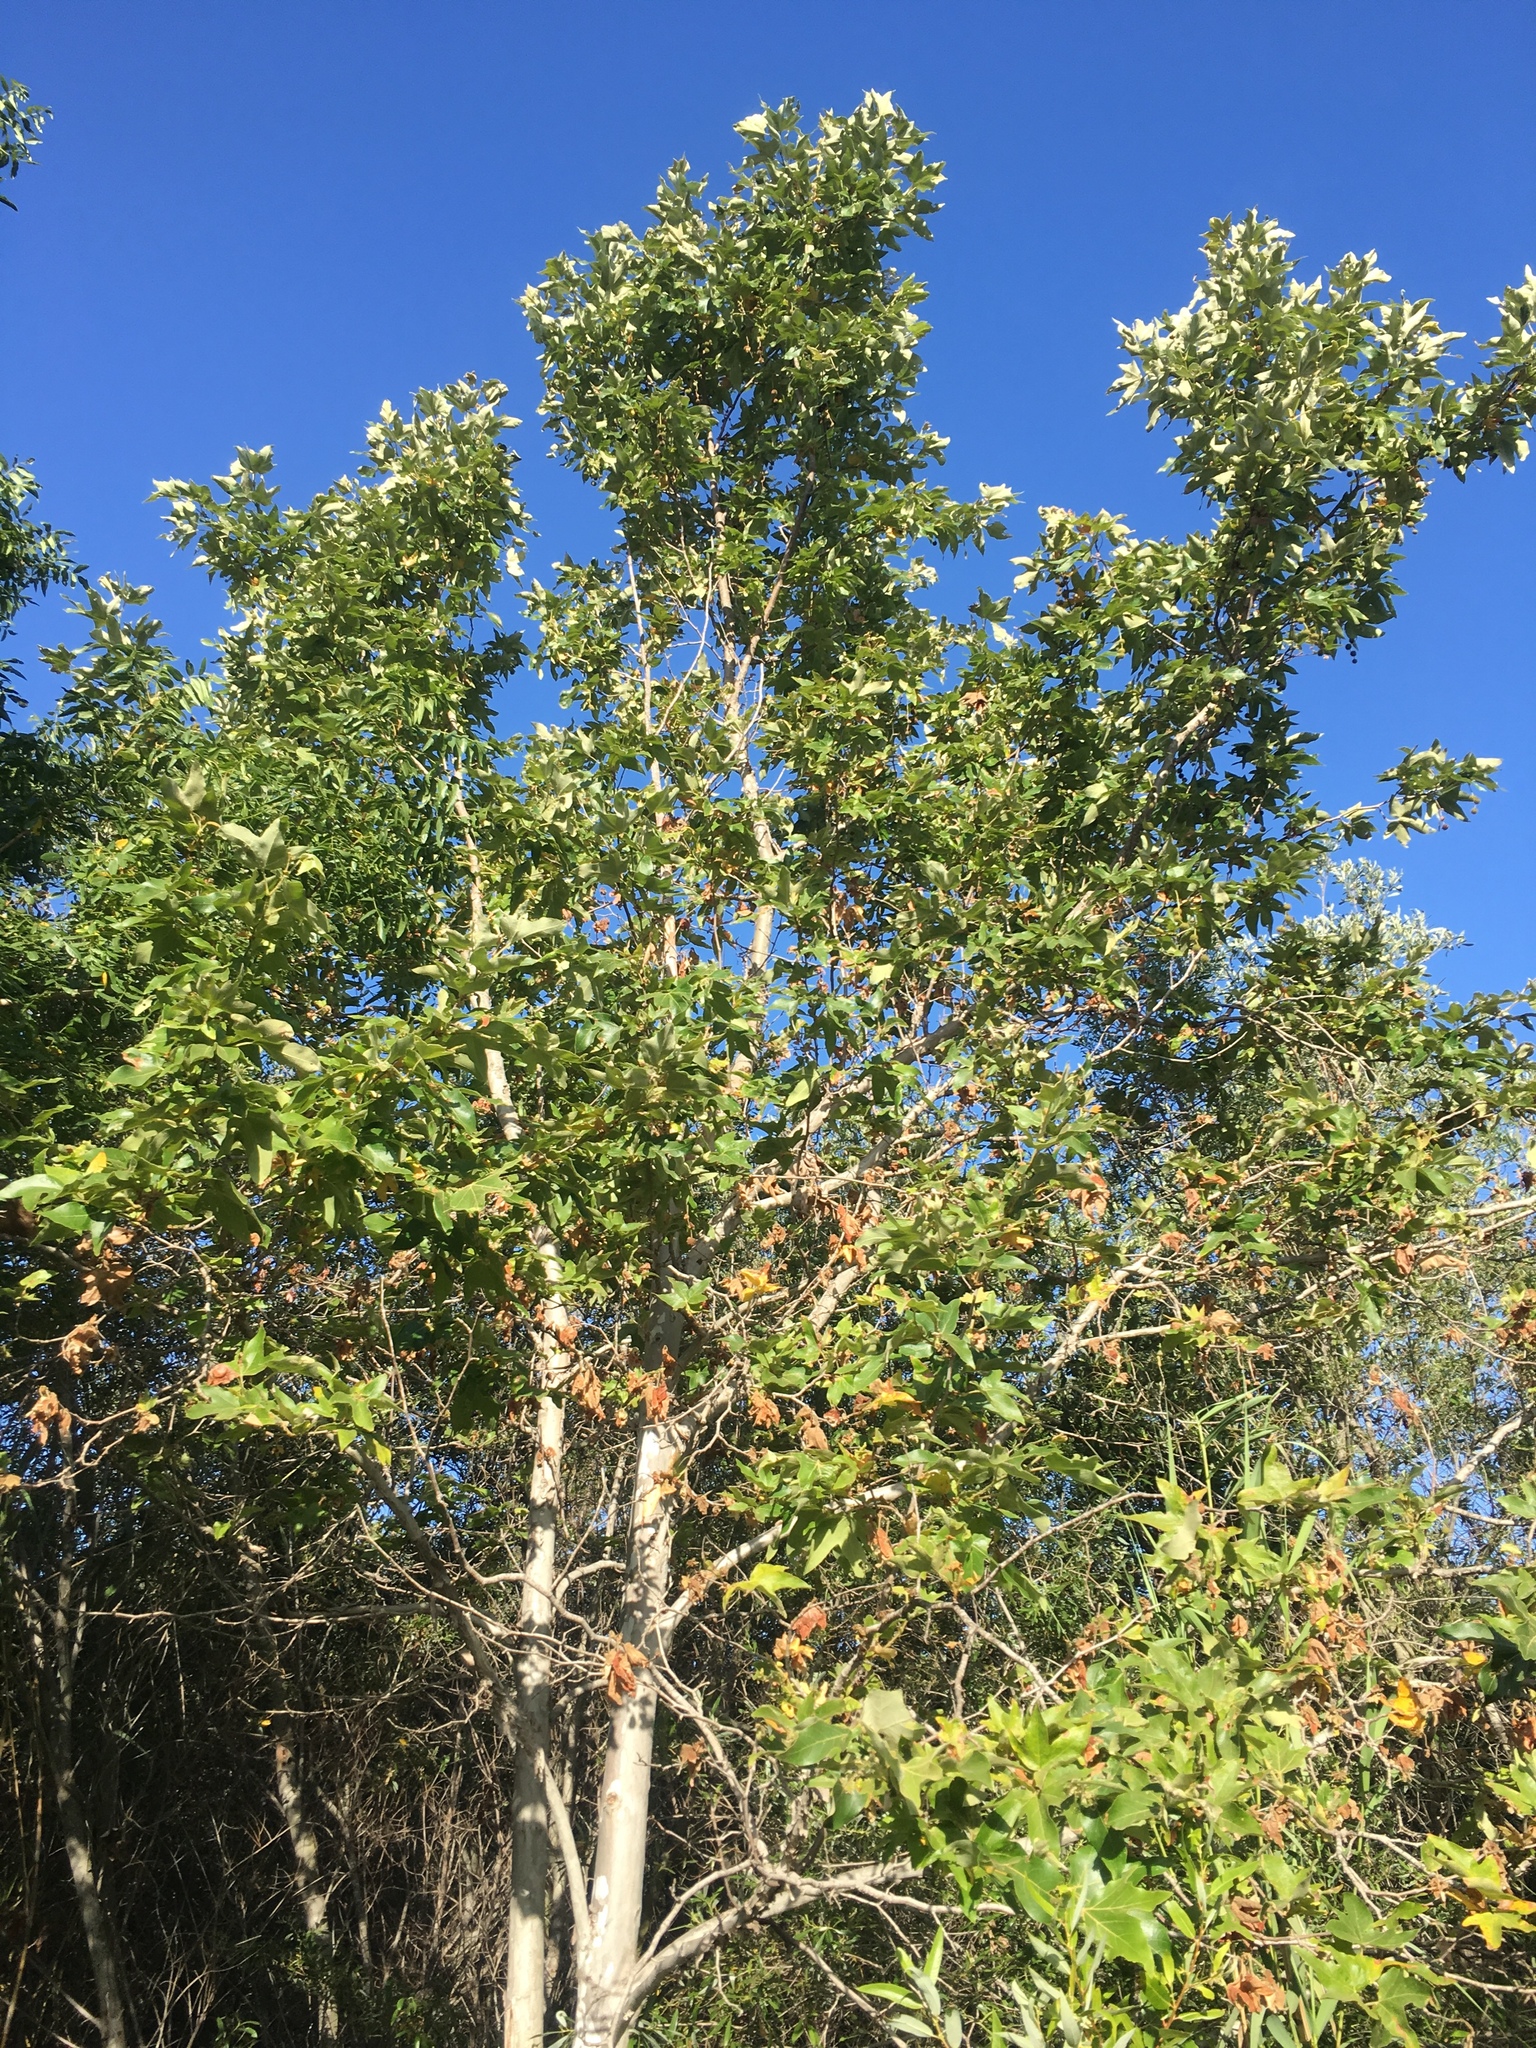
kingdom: Plantae
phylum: Tracheophyta
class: Magnoliopsida
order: Proteales
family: Platanaceae
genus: Platanus
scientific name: Platanus racemosa
